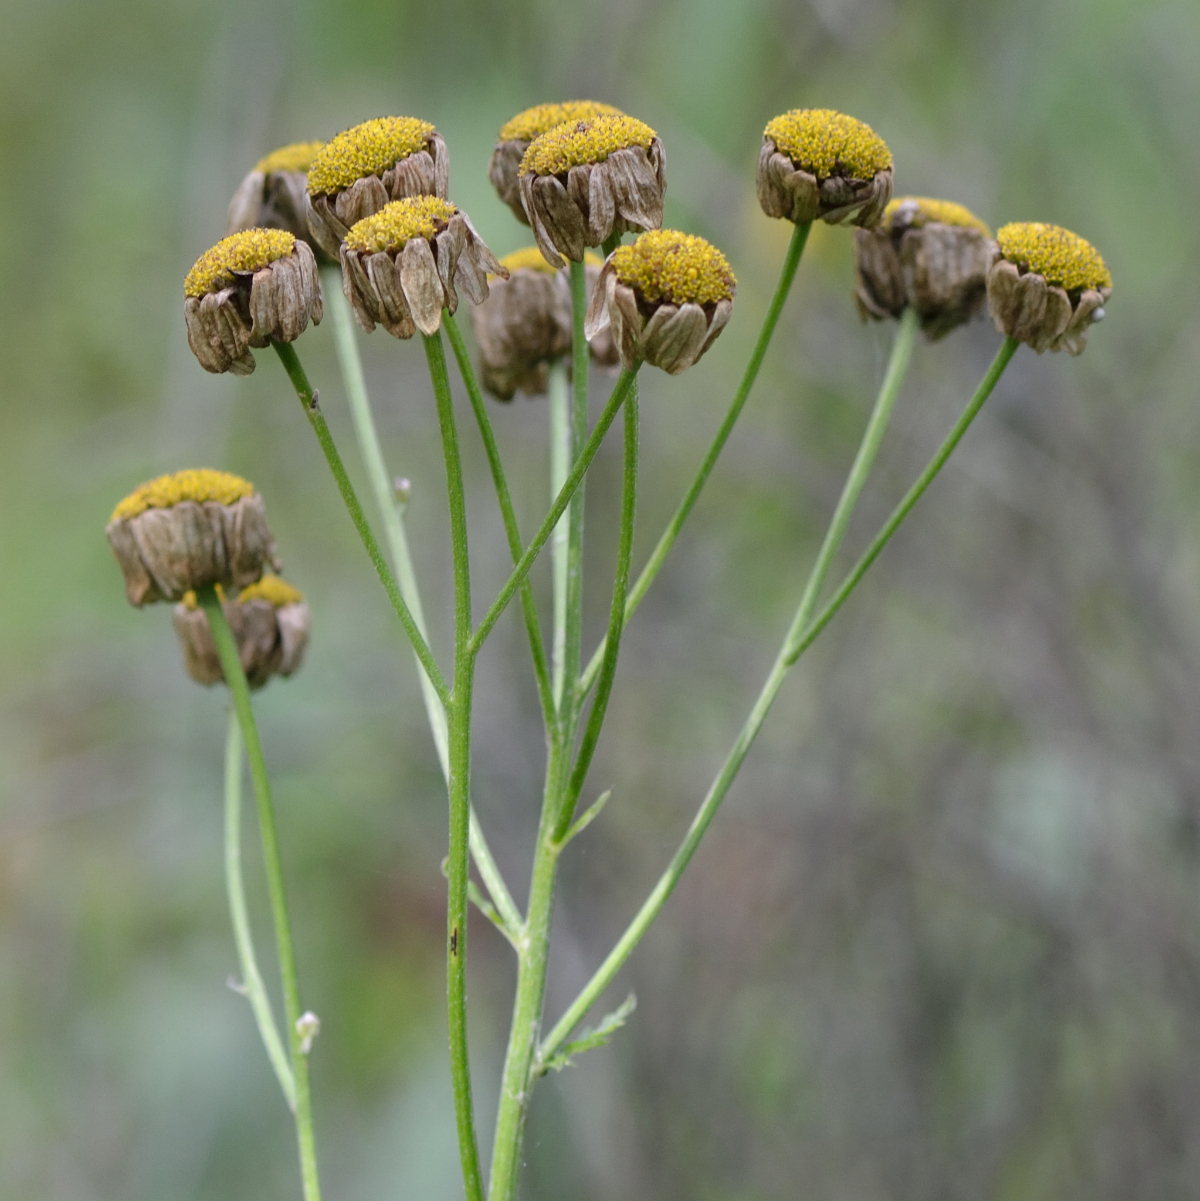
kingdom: Plantae
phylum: Tracheophyta
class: Magnoliopsida
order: Asterales
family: Asteraceae
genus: Tanacetum
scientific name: Tanacetum corymbosum
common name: Scentless feverfew
